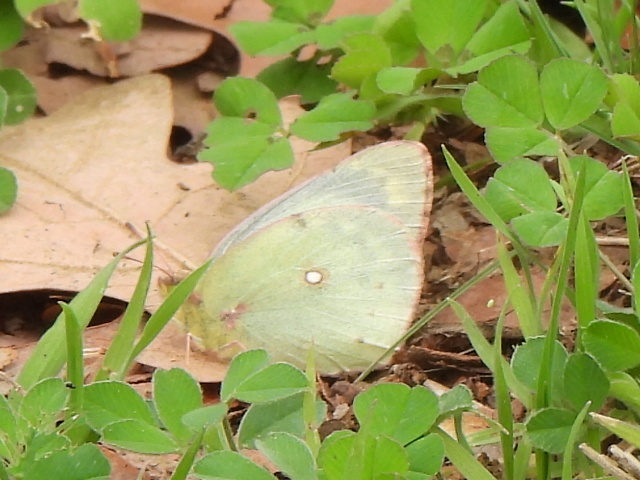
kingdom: Animalia
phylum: Arthropoda
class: Insecta
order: Lepidoptera
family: Pieridae
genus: Colias
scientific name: Colias eurytheme
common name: Alfalfa butterfly
